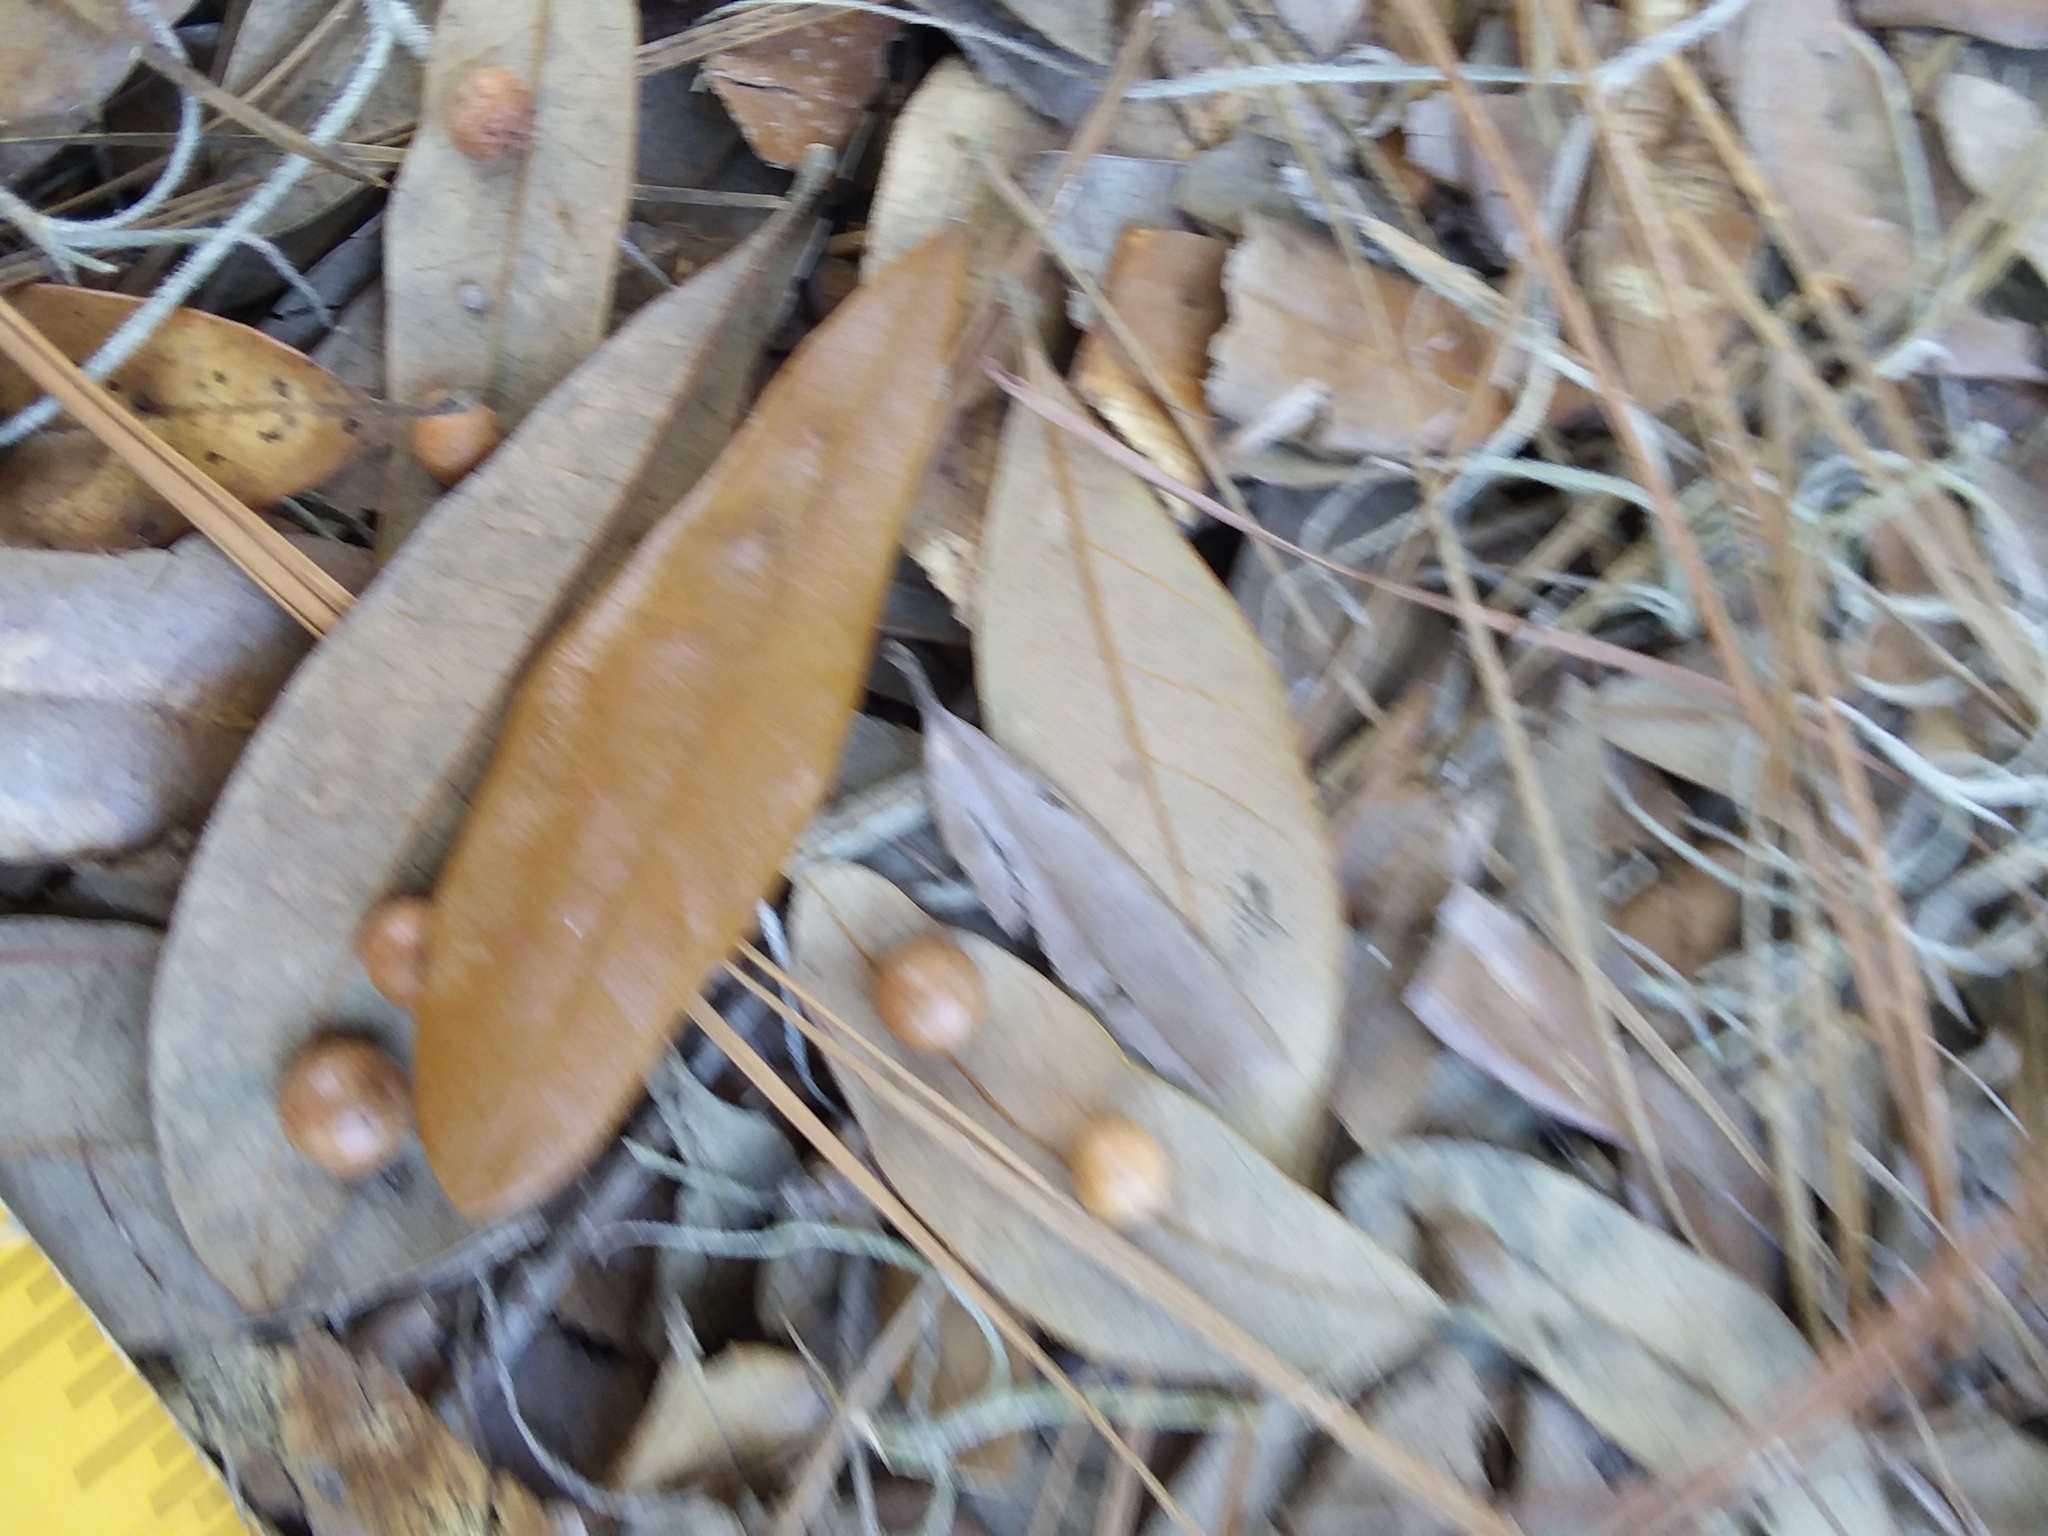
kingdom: Animalia
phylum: Arthropoda
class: Insecta
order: Hymenoptera
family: Cynipidae
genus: Belonocnema
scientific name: Belonocnema treatae
